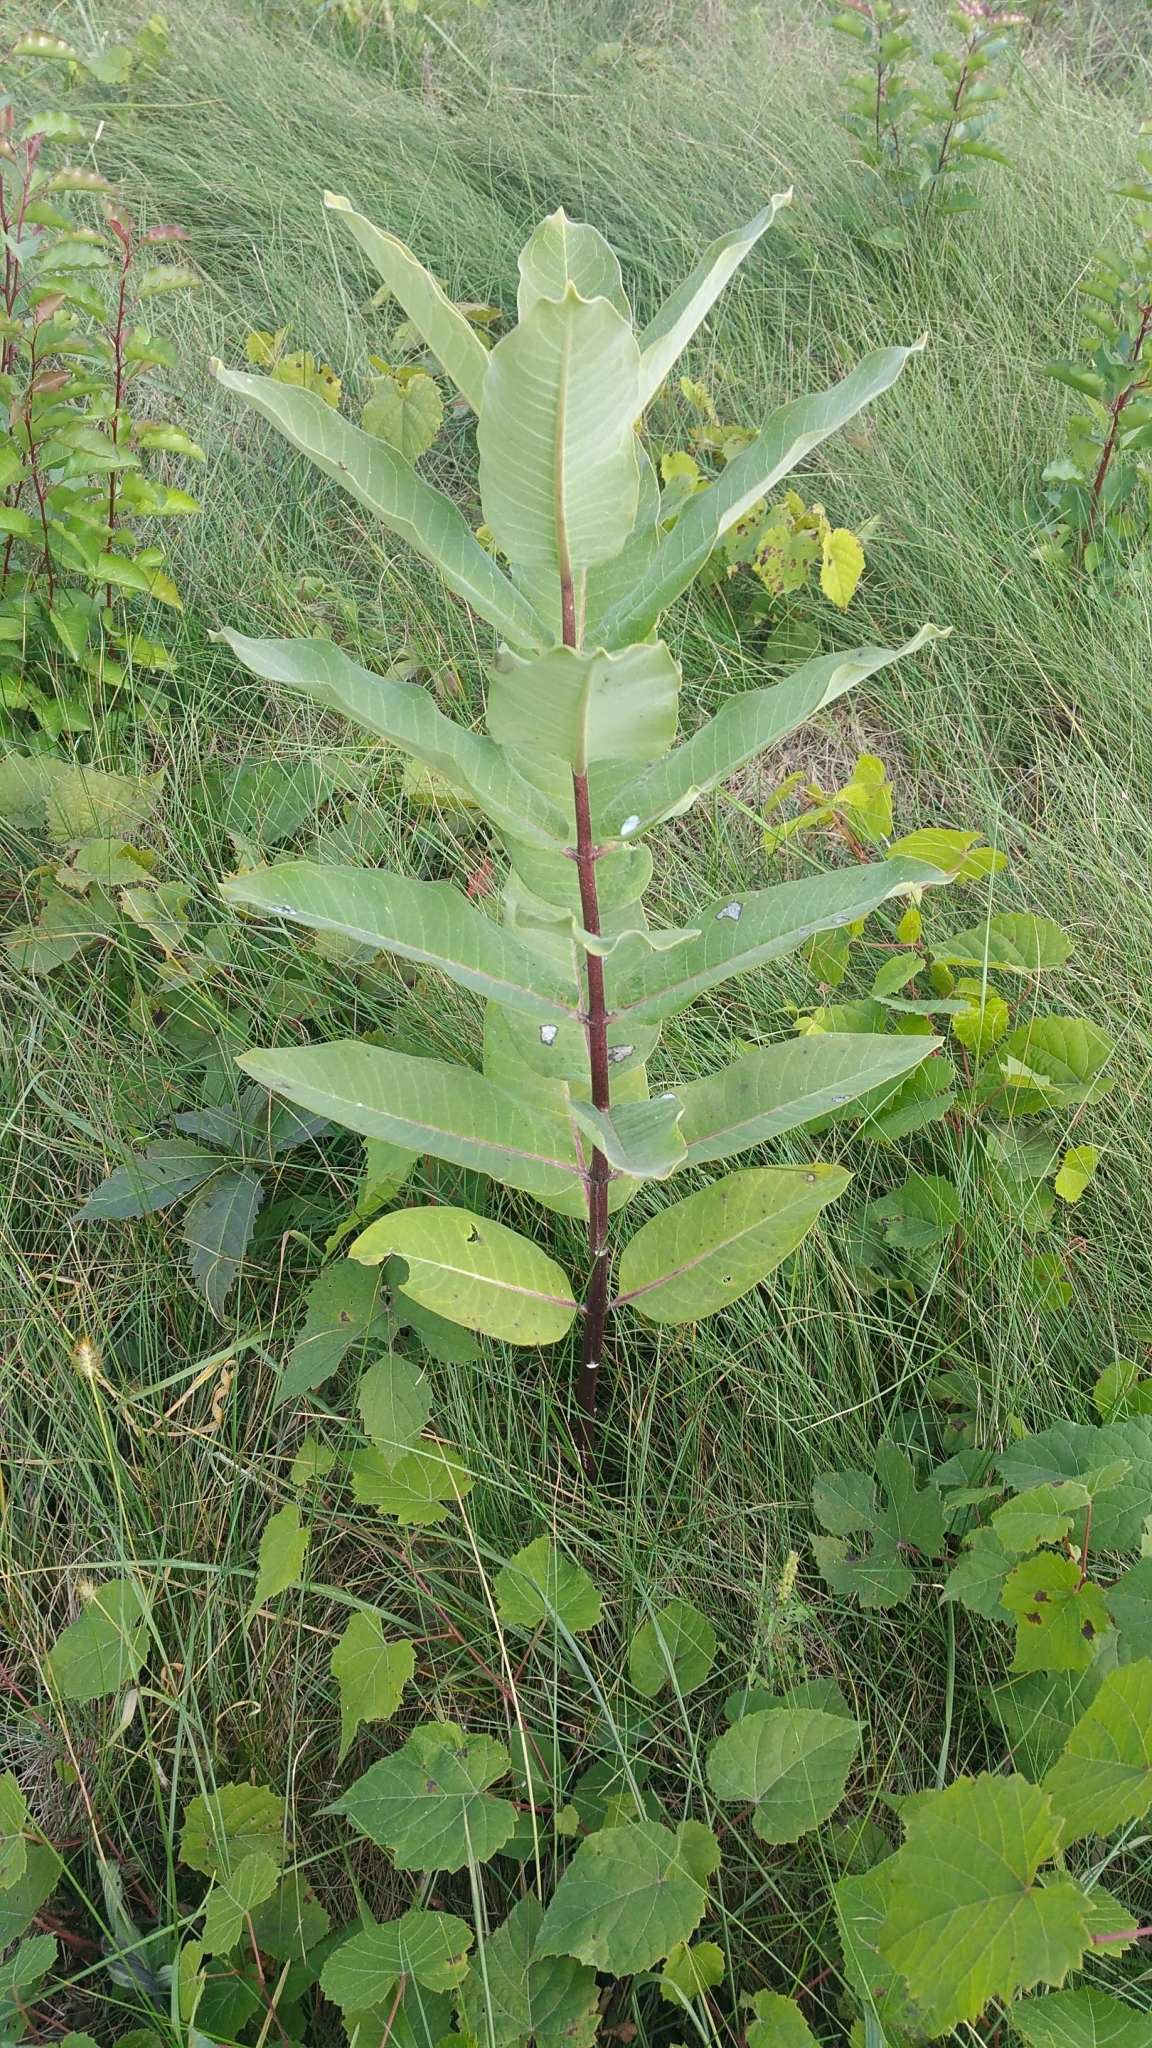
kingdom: Plantae
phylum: Tracheophyta
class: Magnoliopsida
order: Gentianales
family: Apocynaceae
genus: Asclepias
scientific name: Asclepias syriaca
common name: Common milkweed
